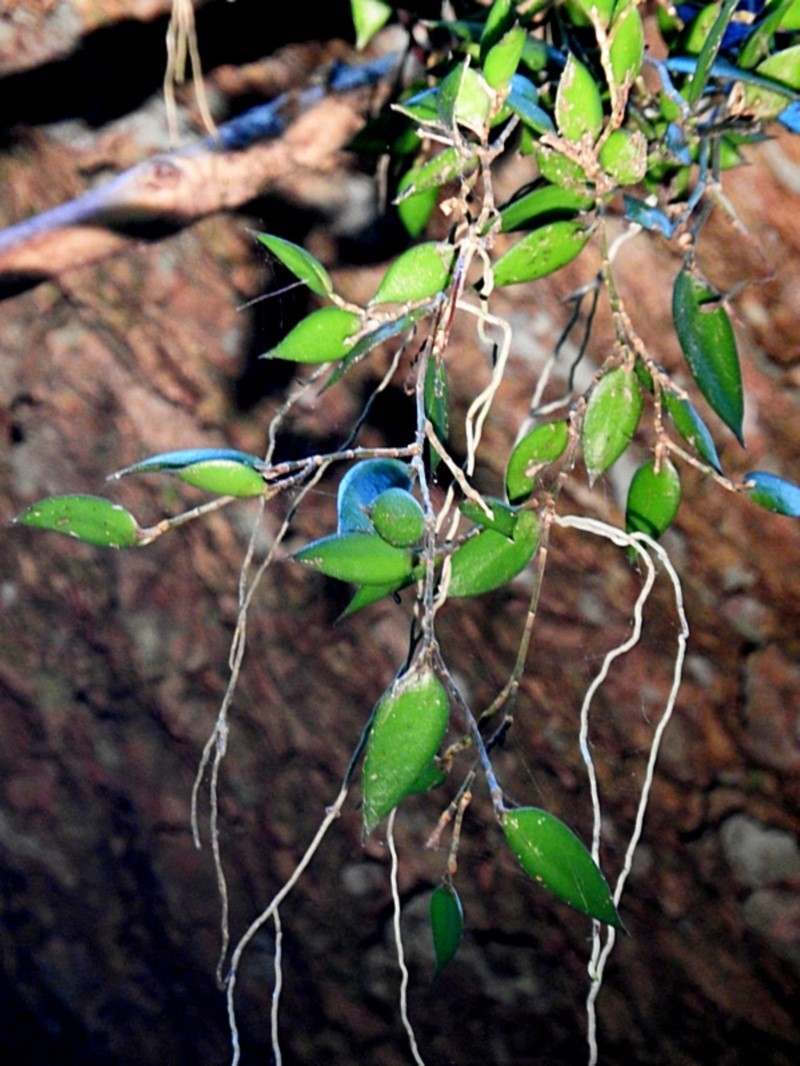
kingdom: Plantae
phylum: Tracheophyta
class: Liliopsida
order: Asparagales
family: Orchidaceae
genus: Dendrobium
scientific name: Dendrobium pugioniforme
